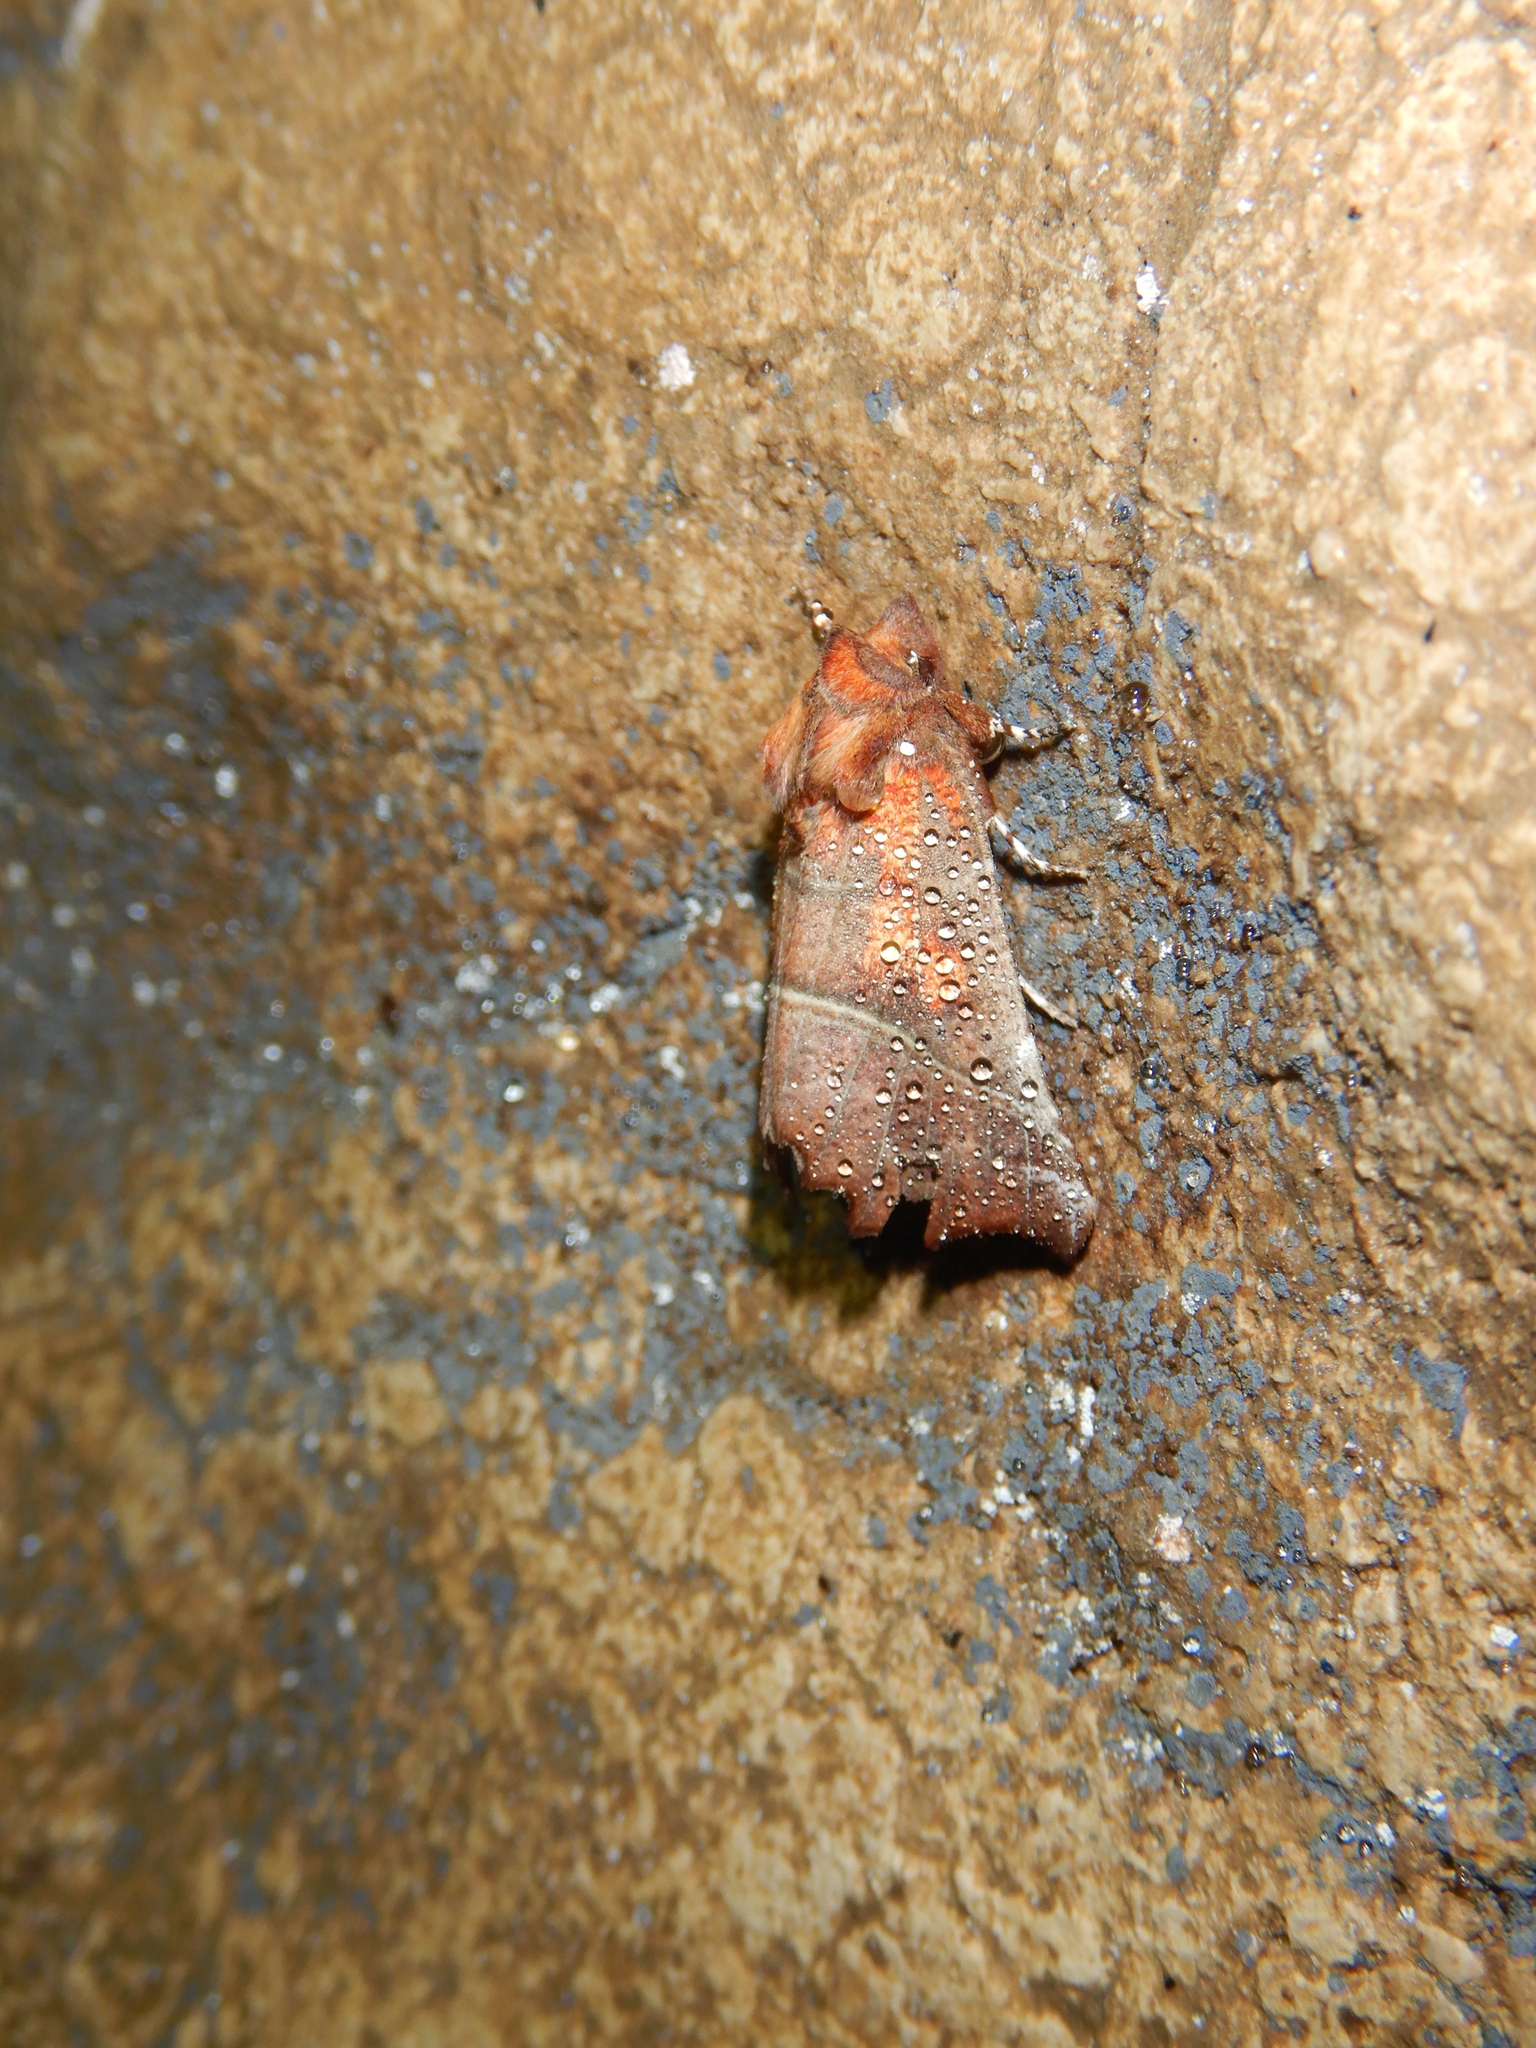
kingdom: Animalia
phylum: Arthropoda
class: Insecta
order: Lepidoptera
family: Erebidae
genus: Scoliopteryx
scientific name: Scoliopteryx libatrix
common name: Herald
